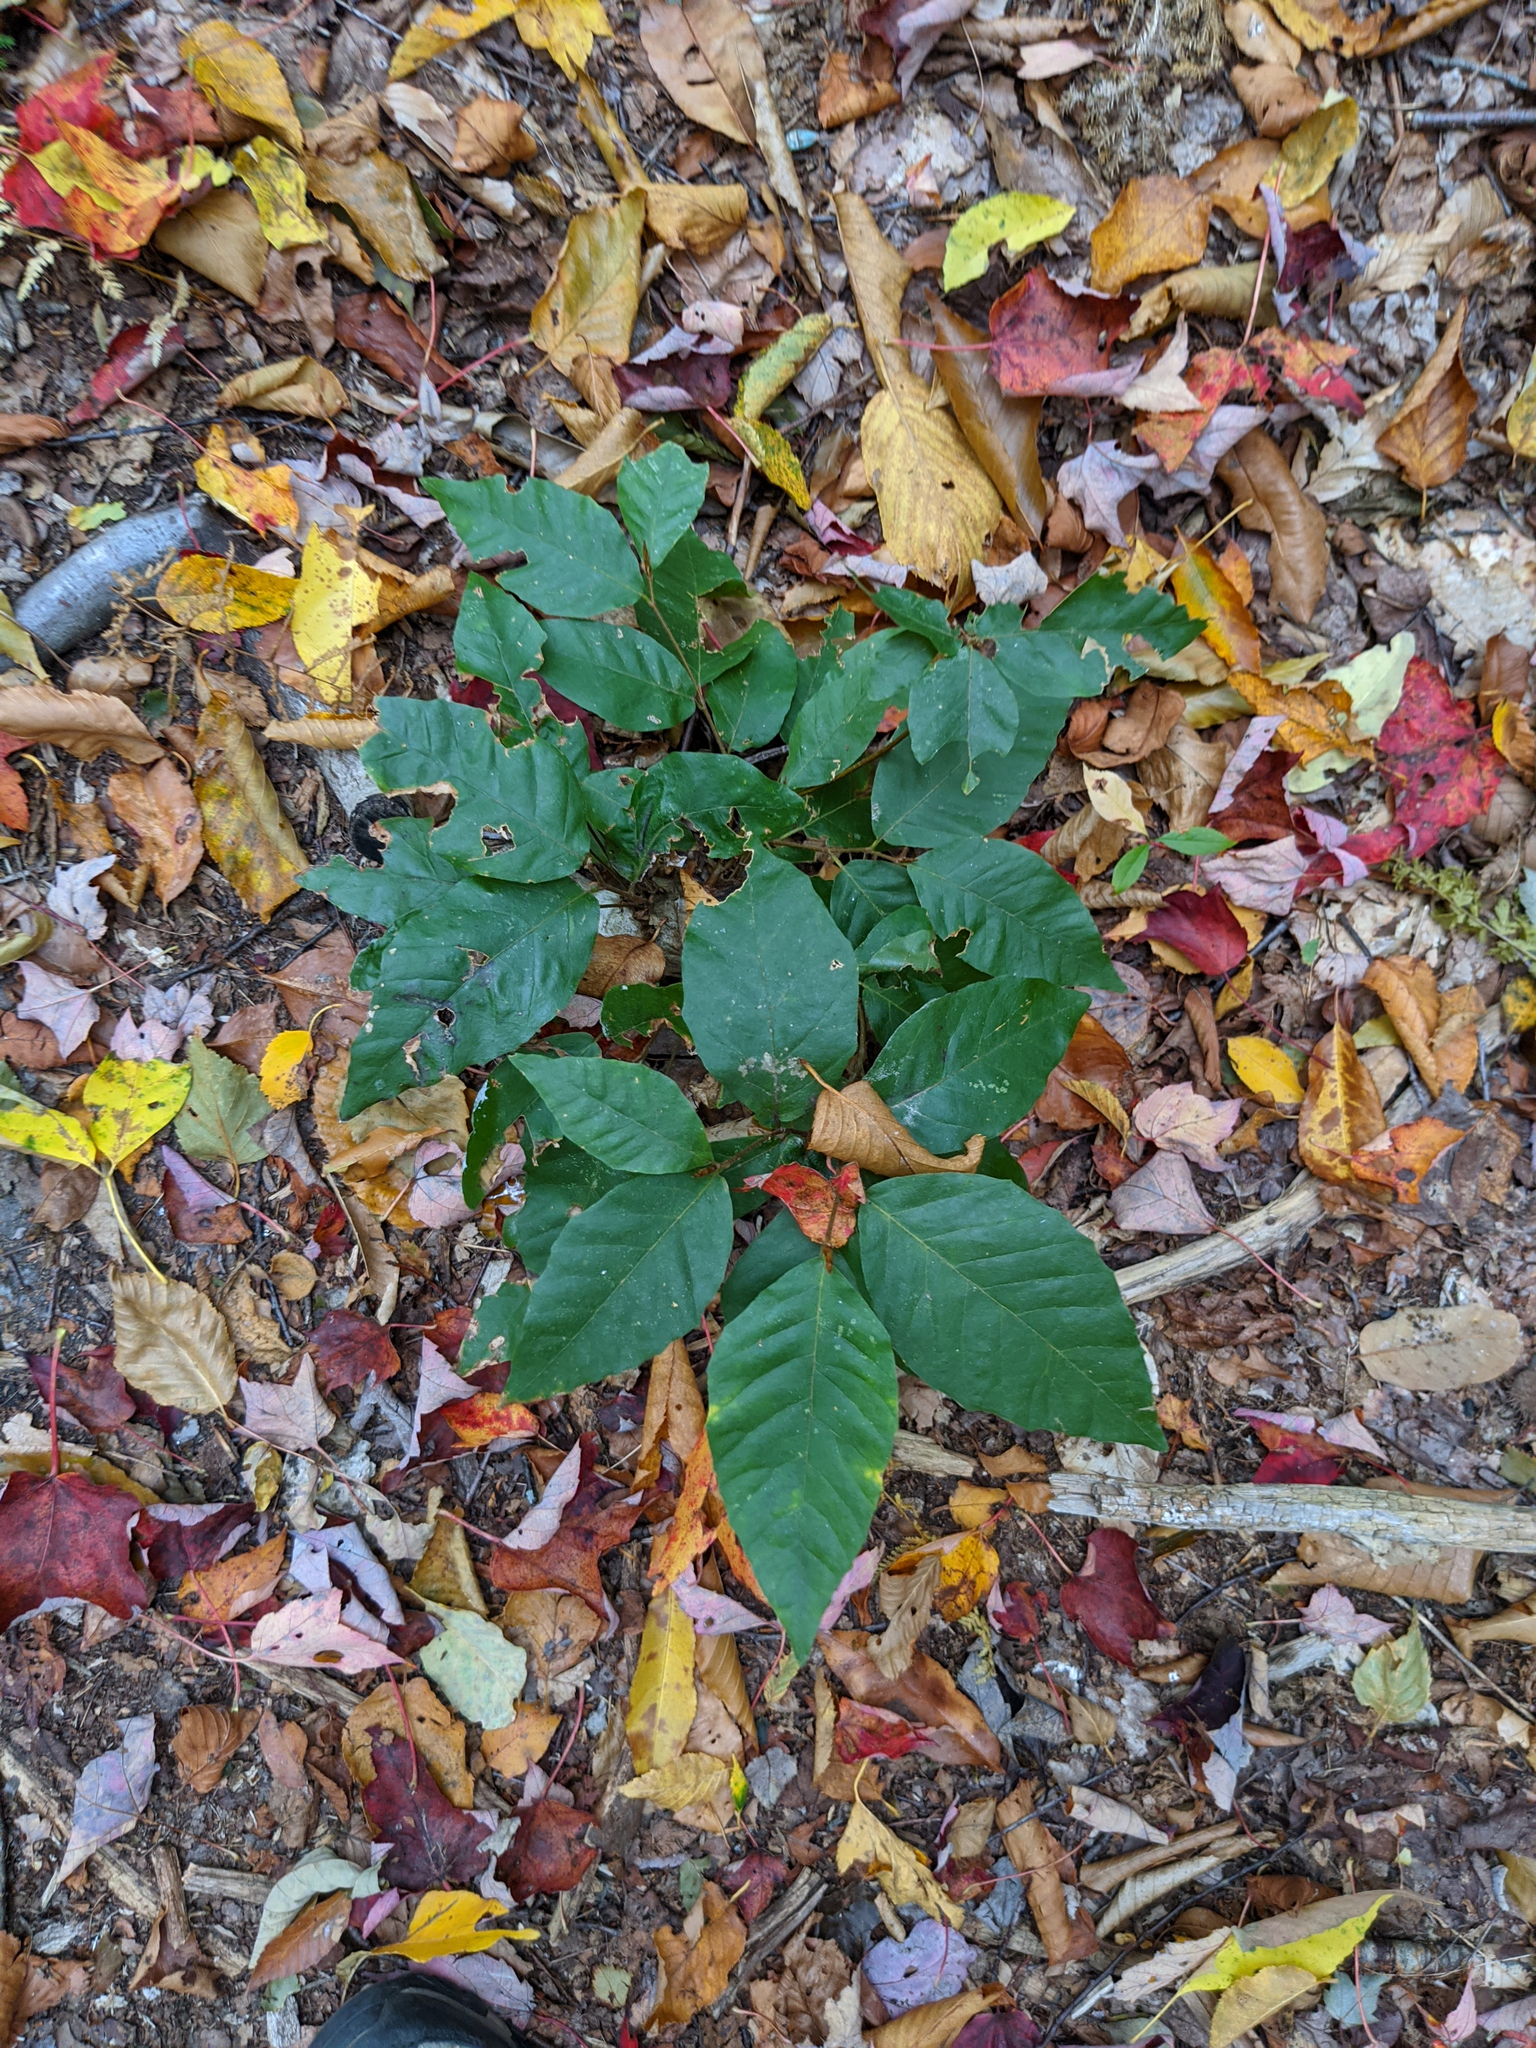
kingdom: Plantae
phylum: Tracheophyta
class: Magnoliopsida
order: Fagales
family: Fagaceae
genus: Fagus
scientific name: Fagus grandifolia
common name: American beech
